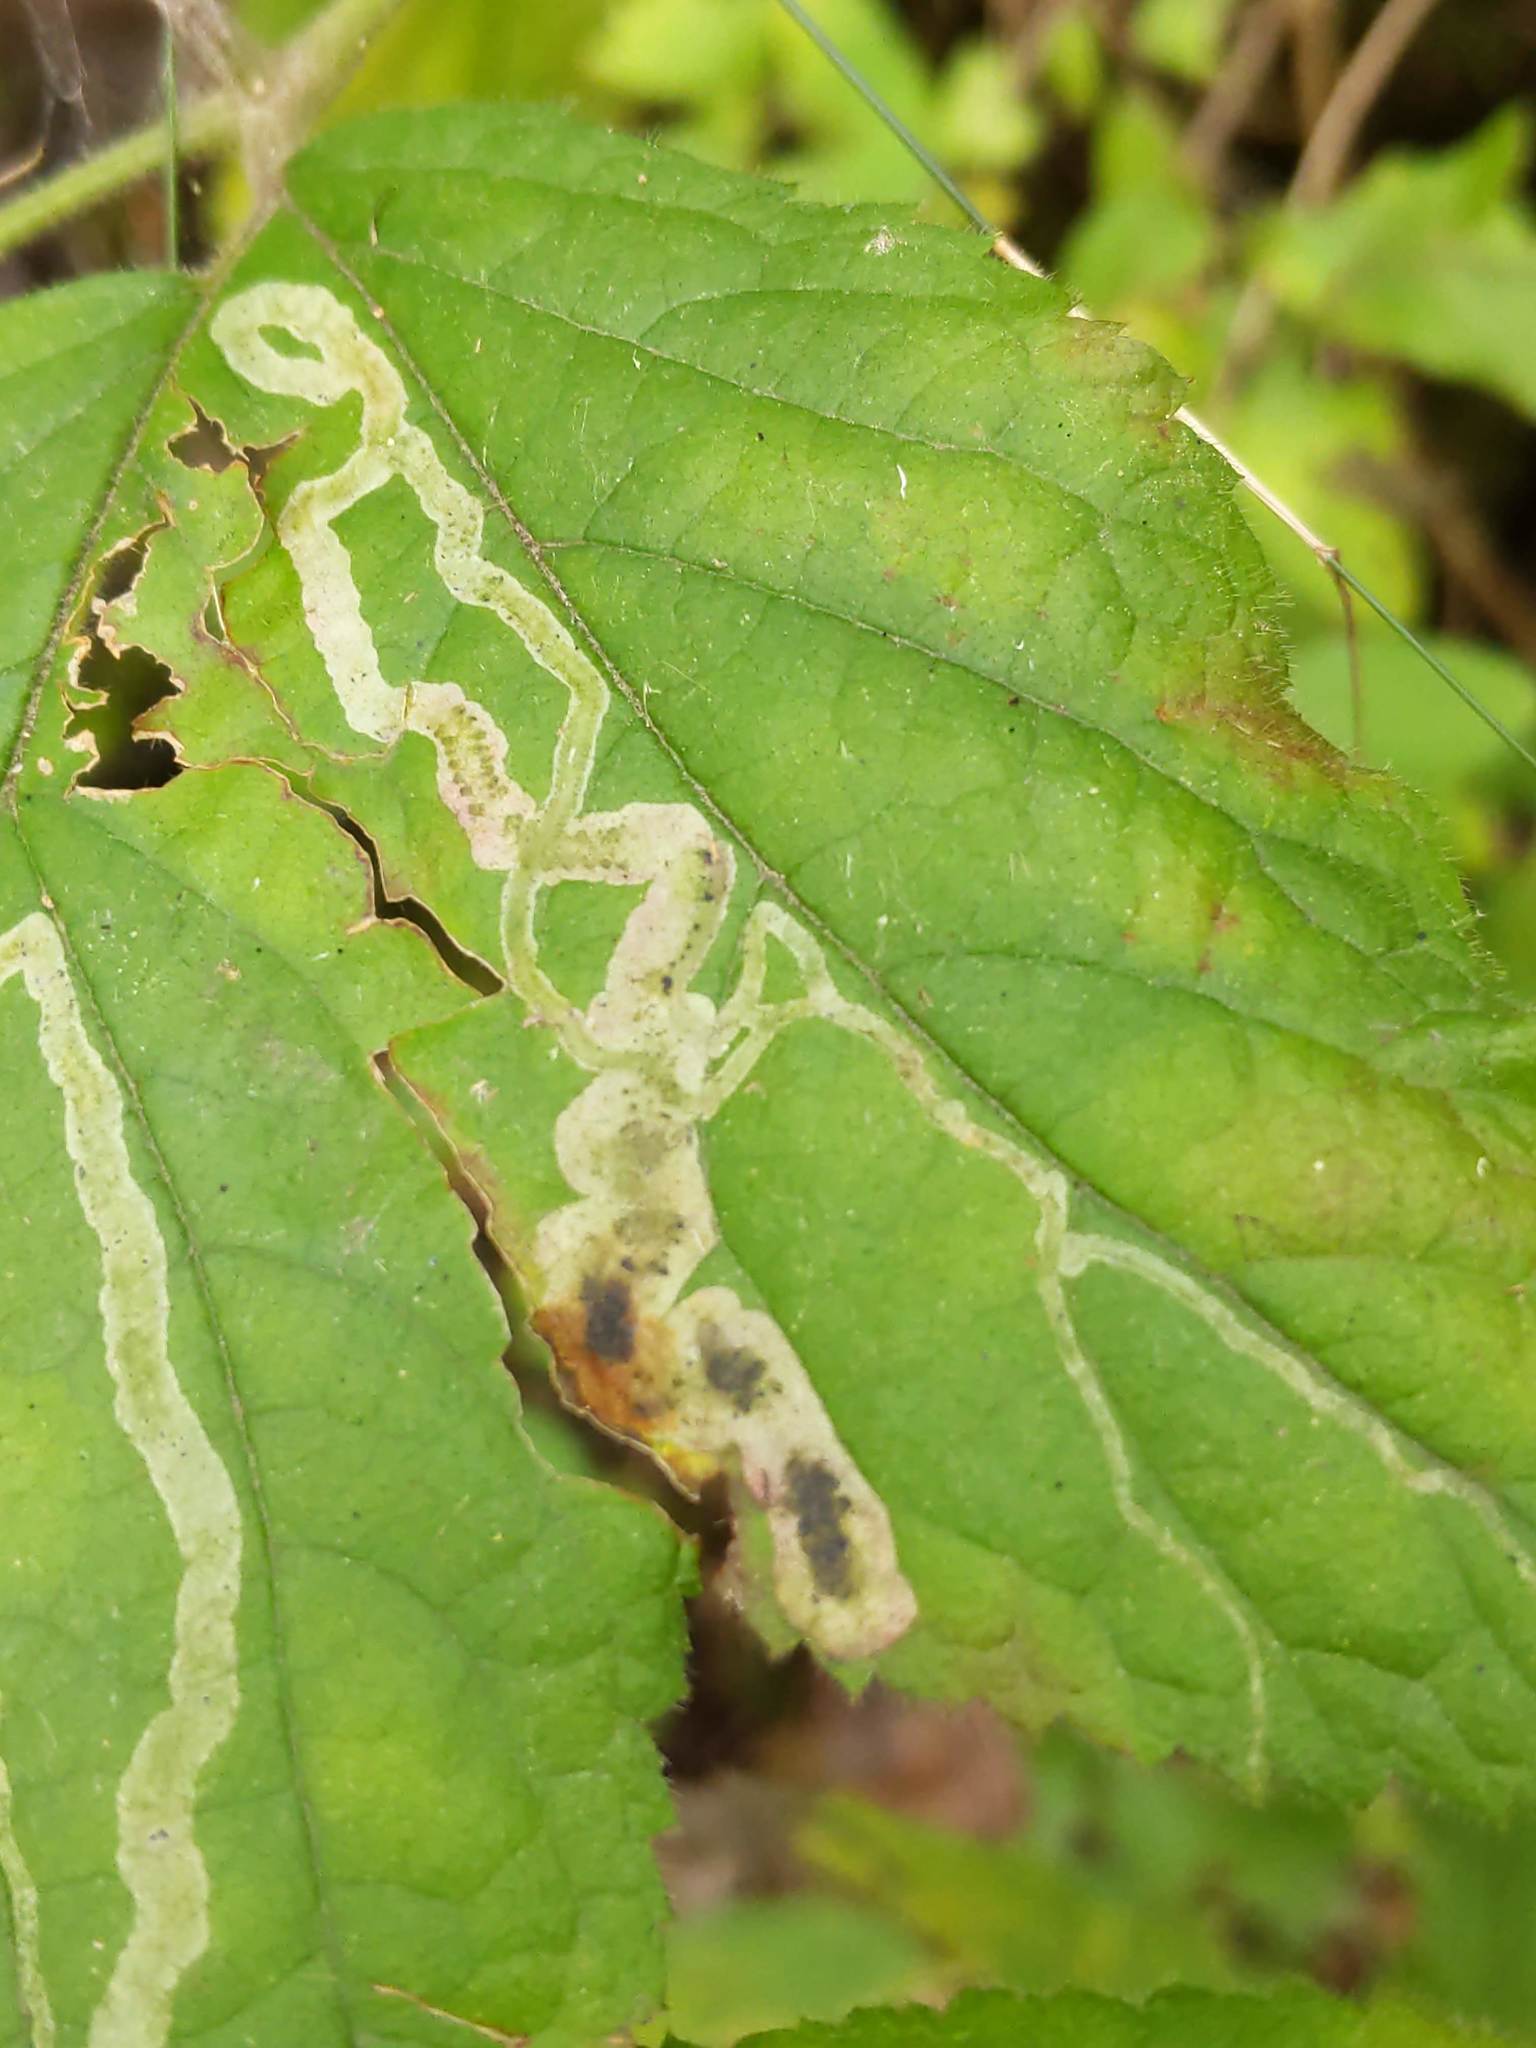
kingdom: Animalia
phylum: Arthropoda
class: Insecta
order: Diptera
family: Agromyzidae
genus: Agromyza
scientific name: Agromyza vockerothi
